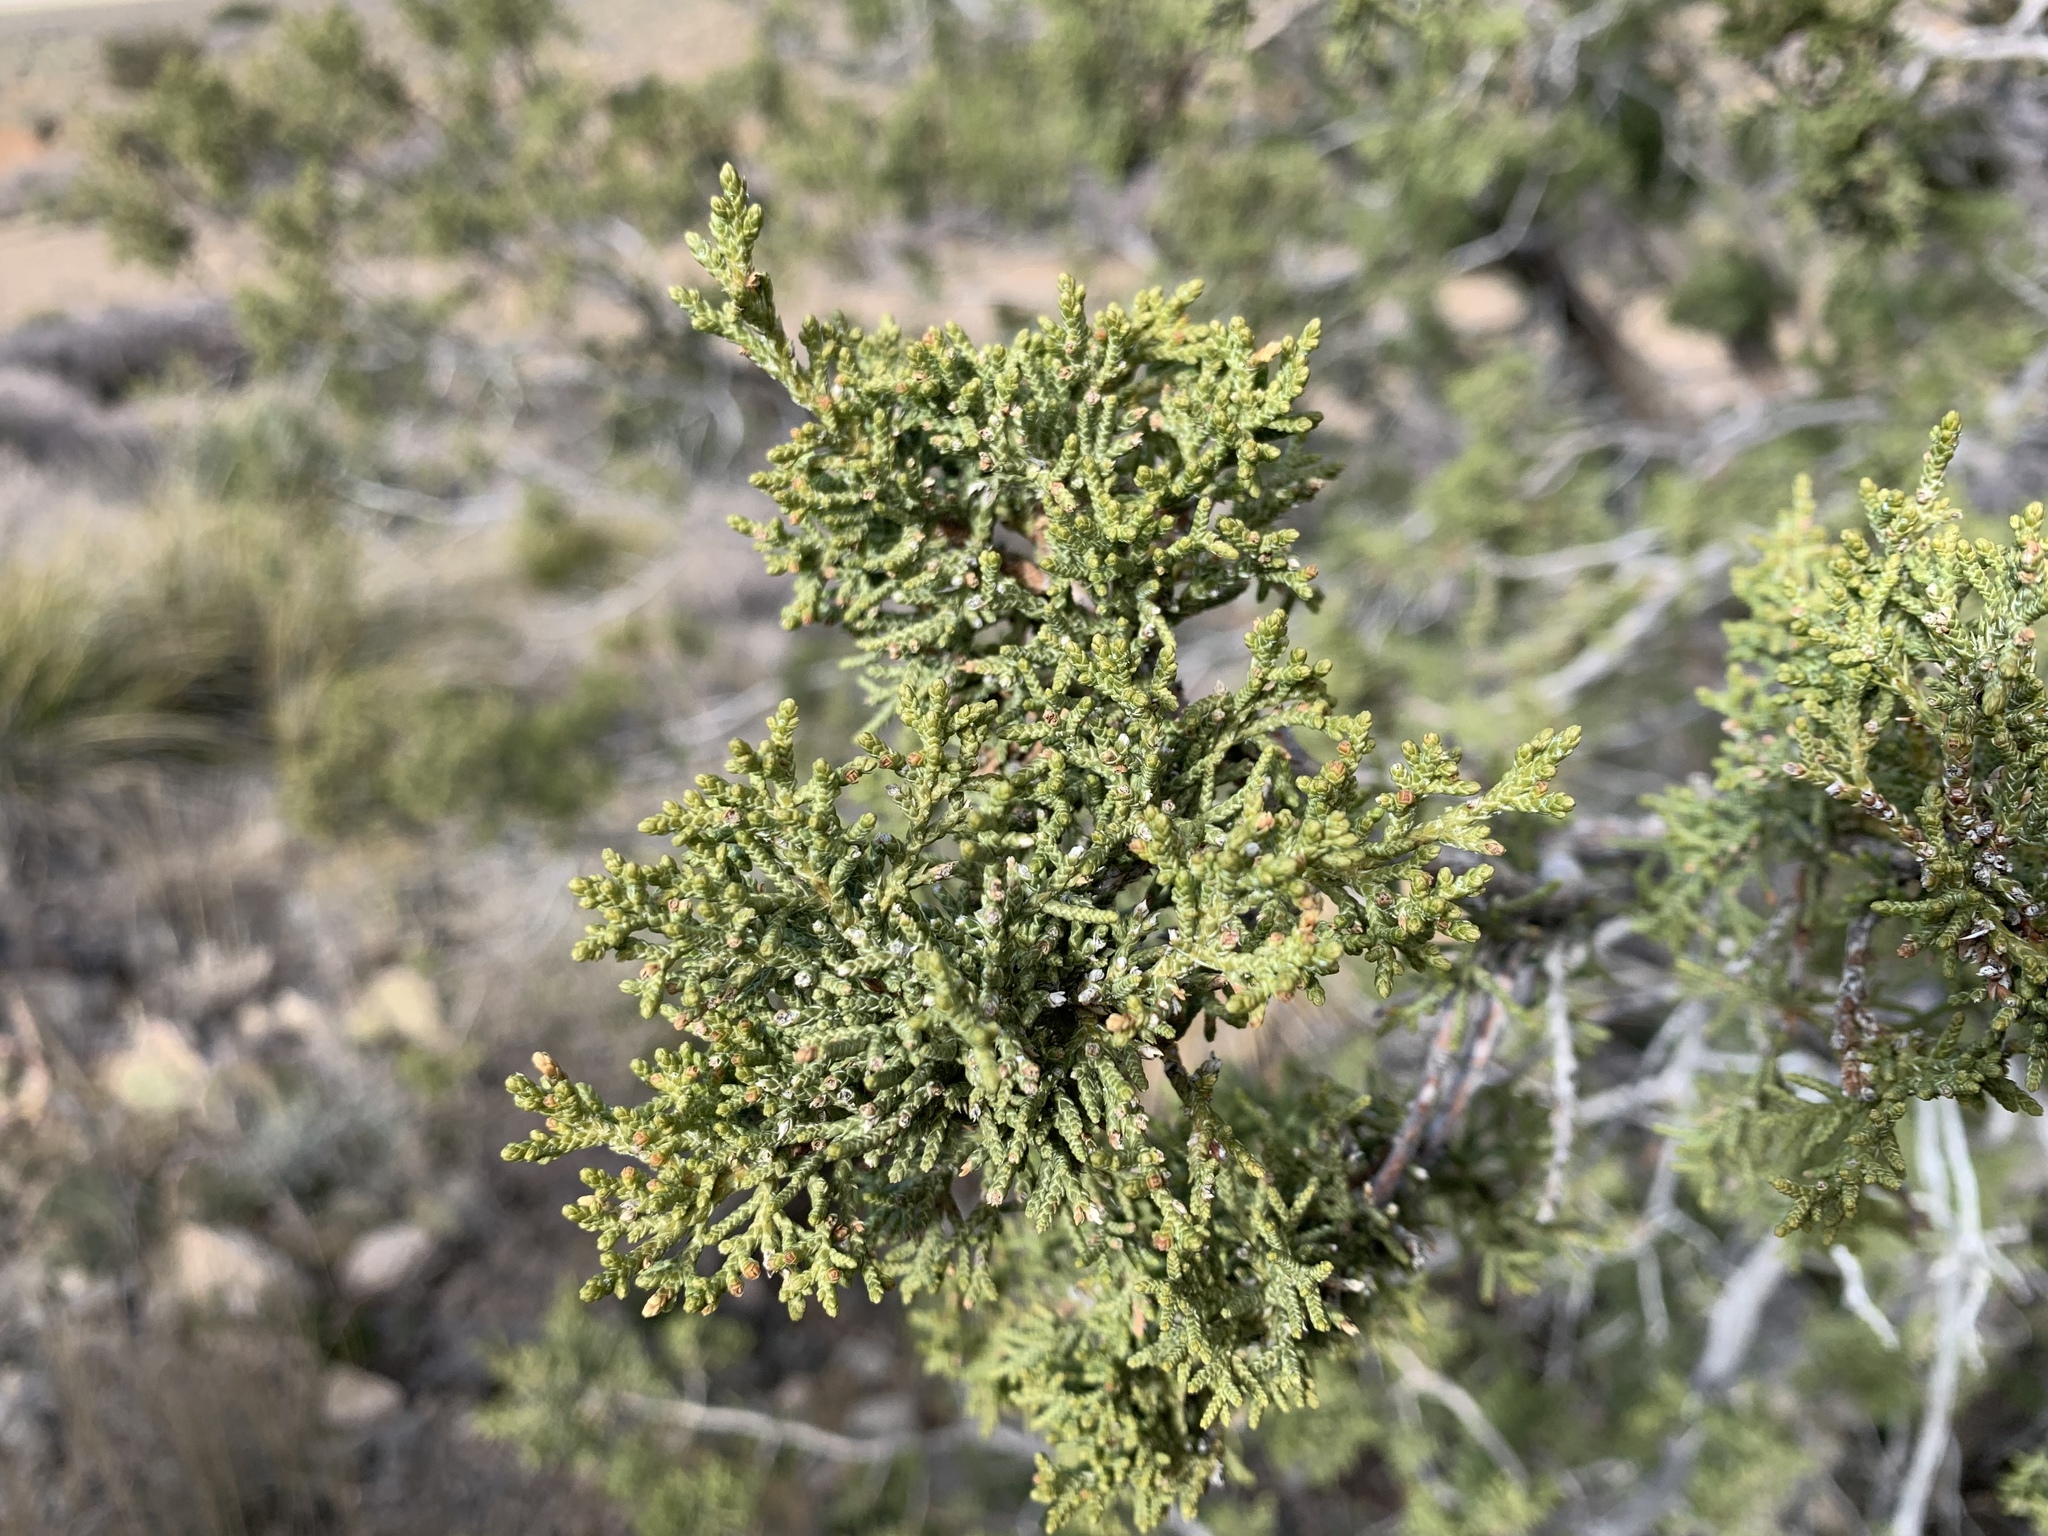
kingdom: Plantae
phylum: Tracheophyta
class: Pinopsida
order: Pinales
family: Cupressaceae
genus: Juniperus
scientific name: Juniperus arizonica
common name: Arizona juniper
